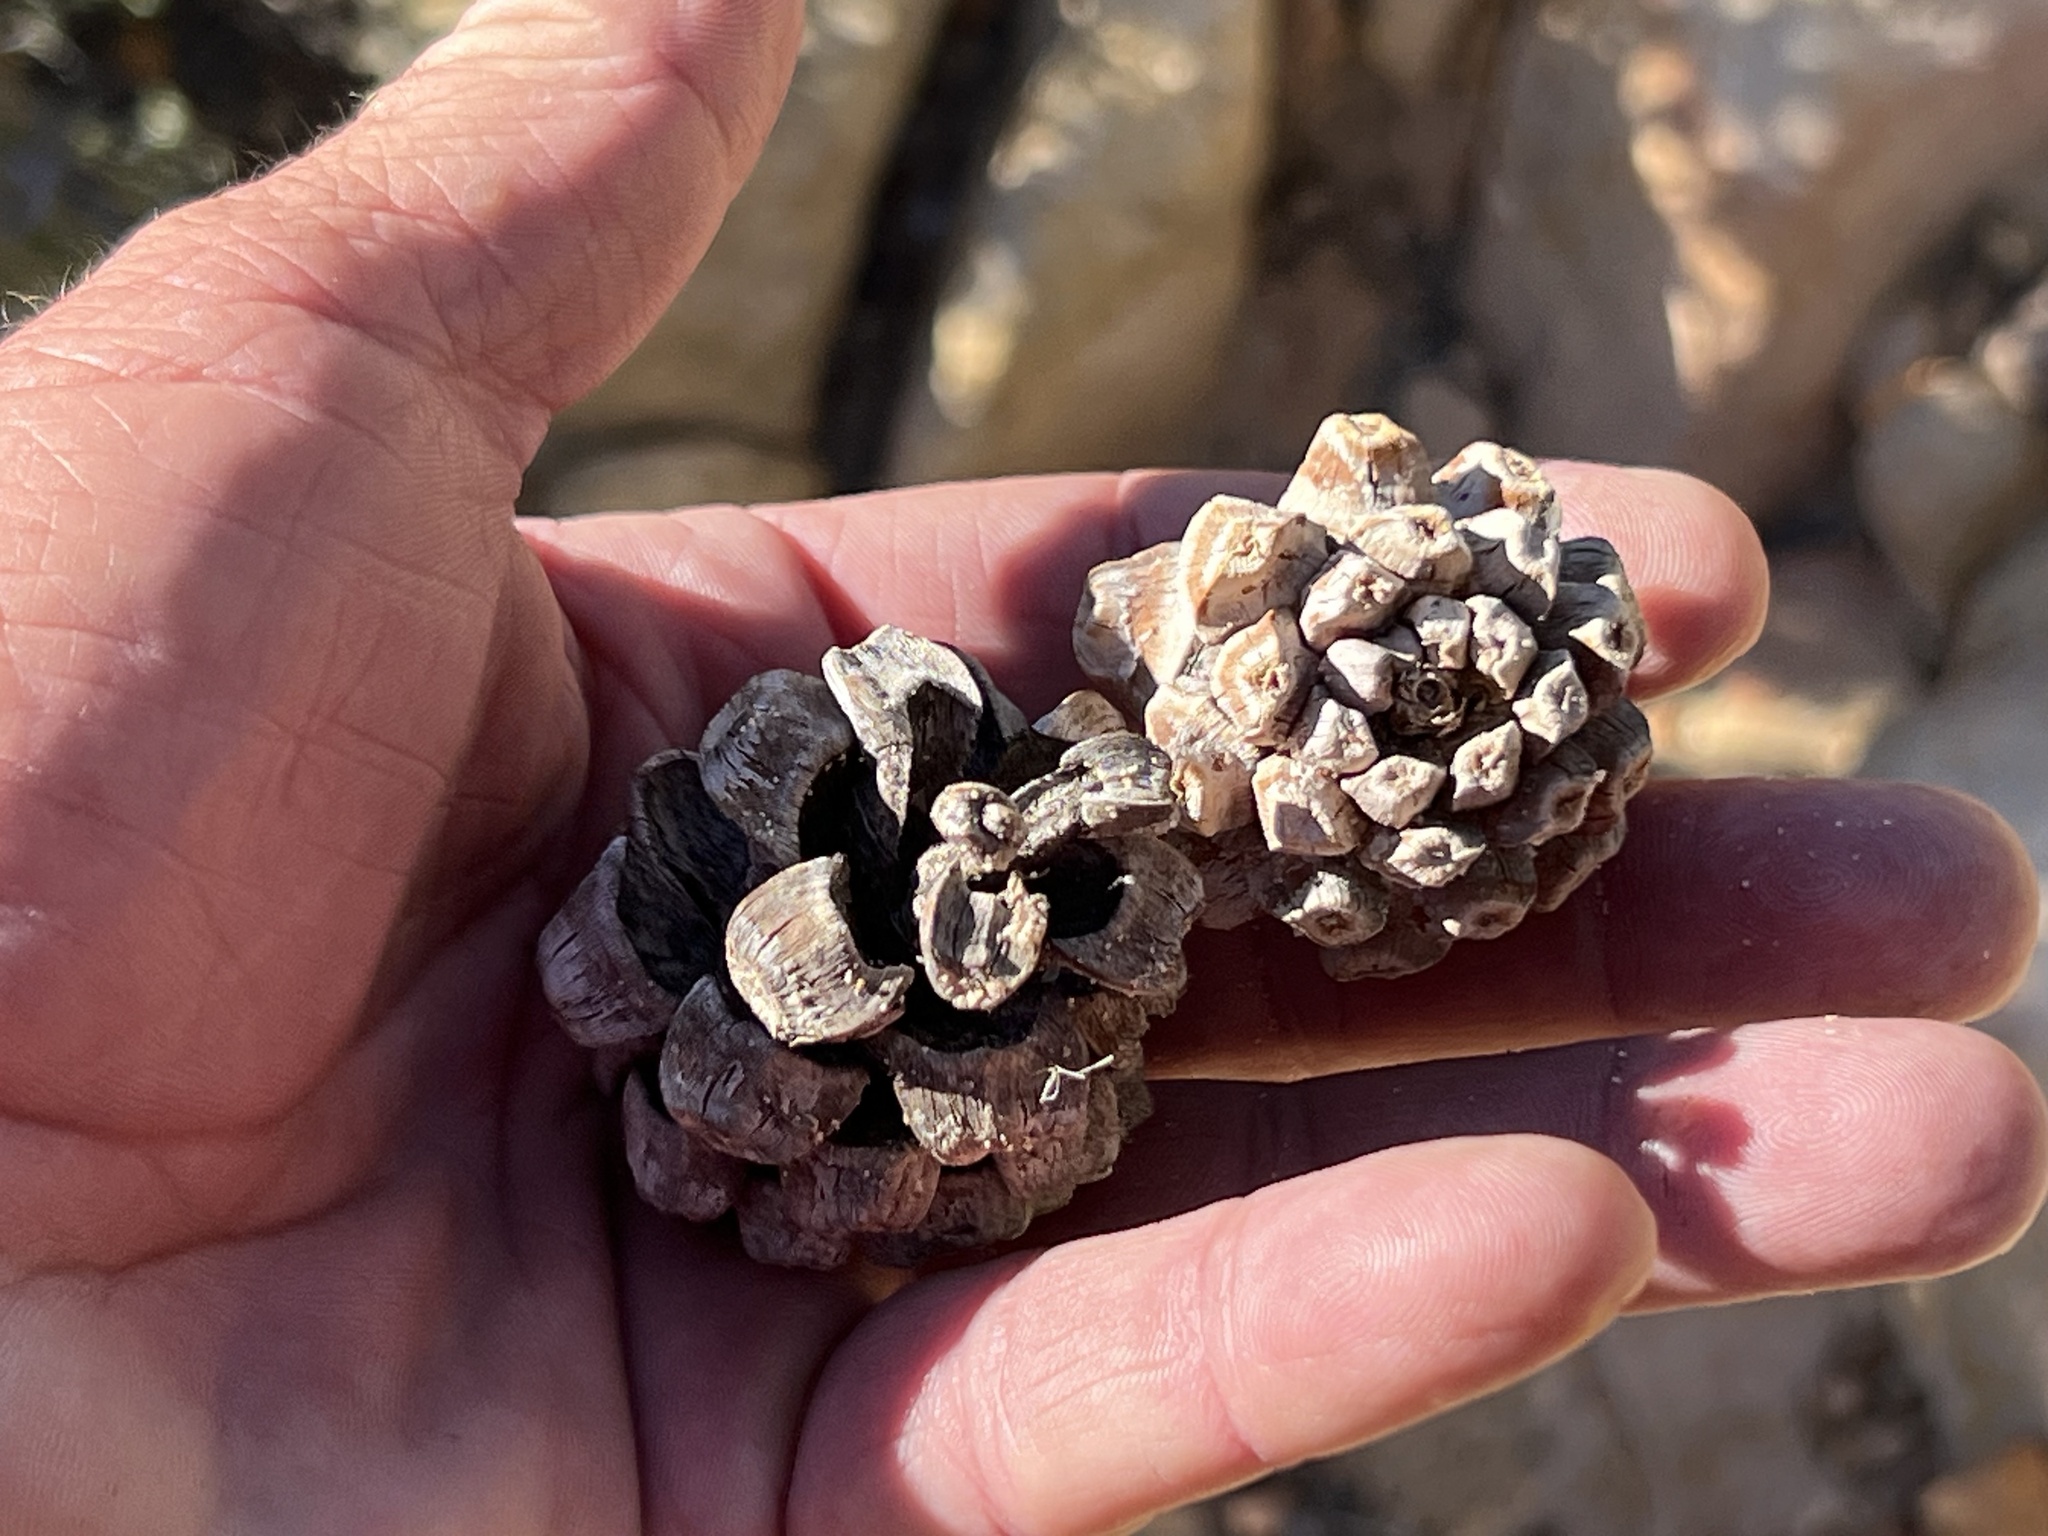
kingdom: Plantae
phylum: Tracheophyta
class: Pinopsida
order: Pinales
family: Pinaceae
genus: Pinus
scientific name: Pinus monophylla
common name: One-leaved nut pine
